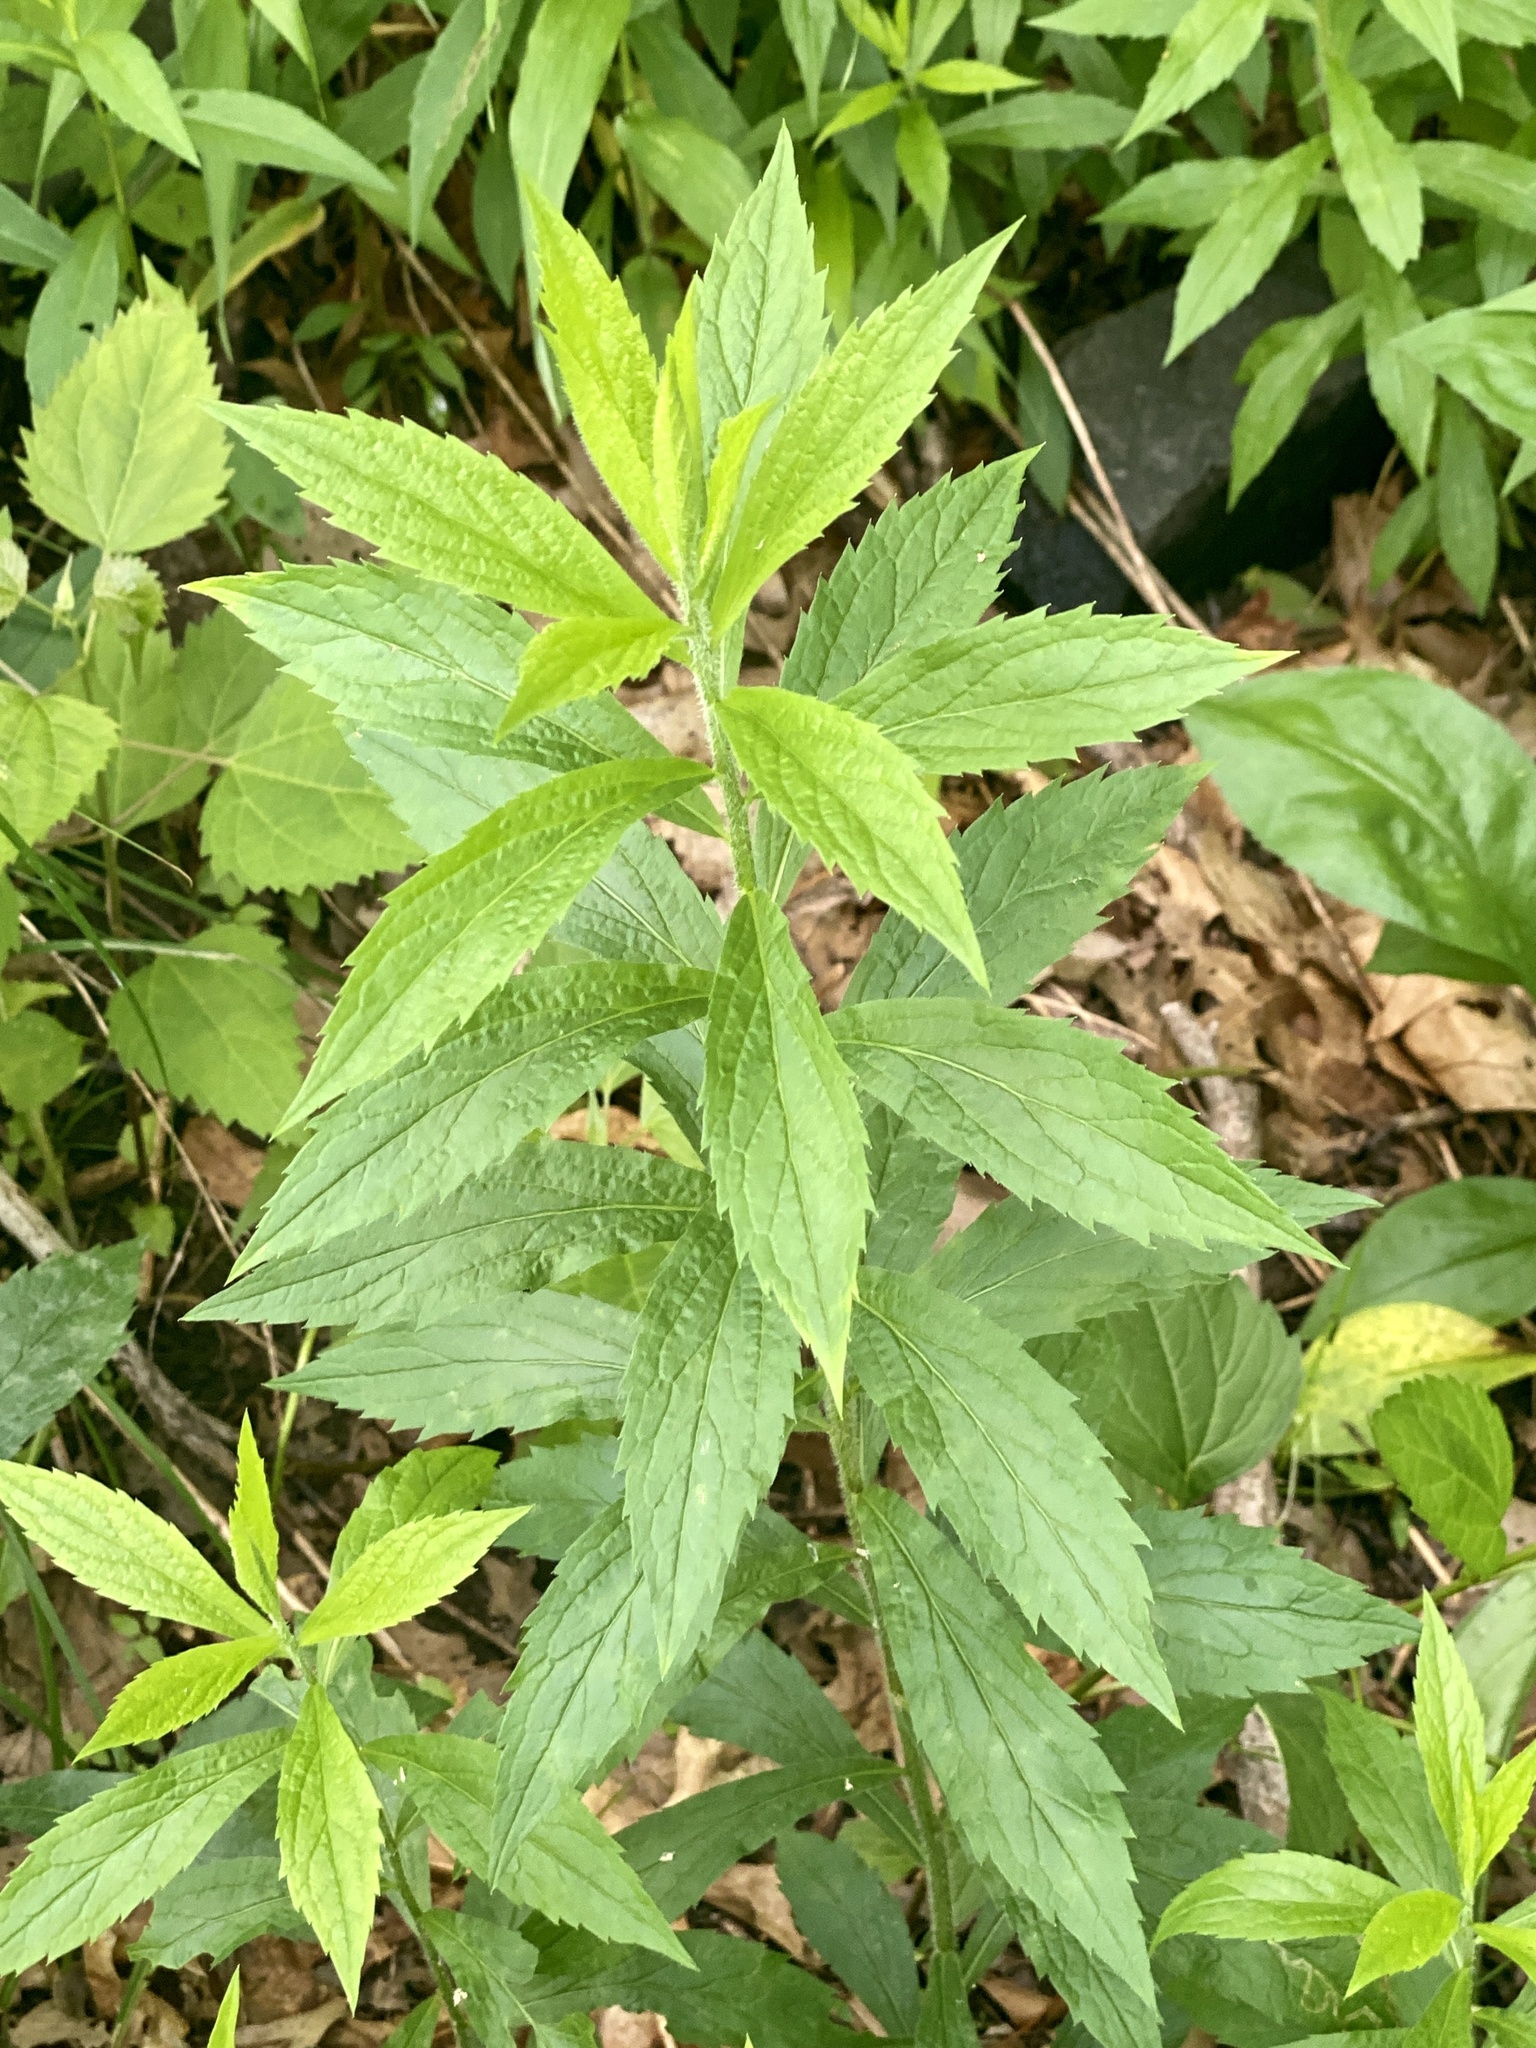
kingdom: Plantae
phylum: Tracheophyta
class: Magnoliopsida
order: Asterales
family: Asteraceae
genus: Solidago
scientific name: Solidago rugosa
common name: Rough-stemmed goldenrod
